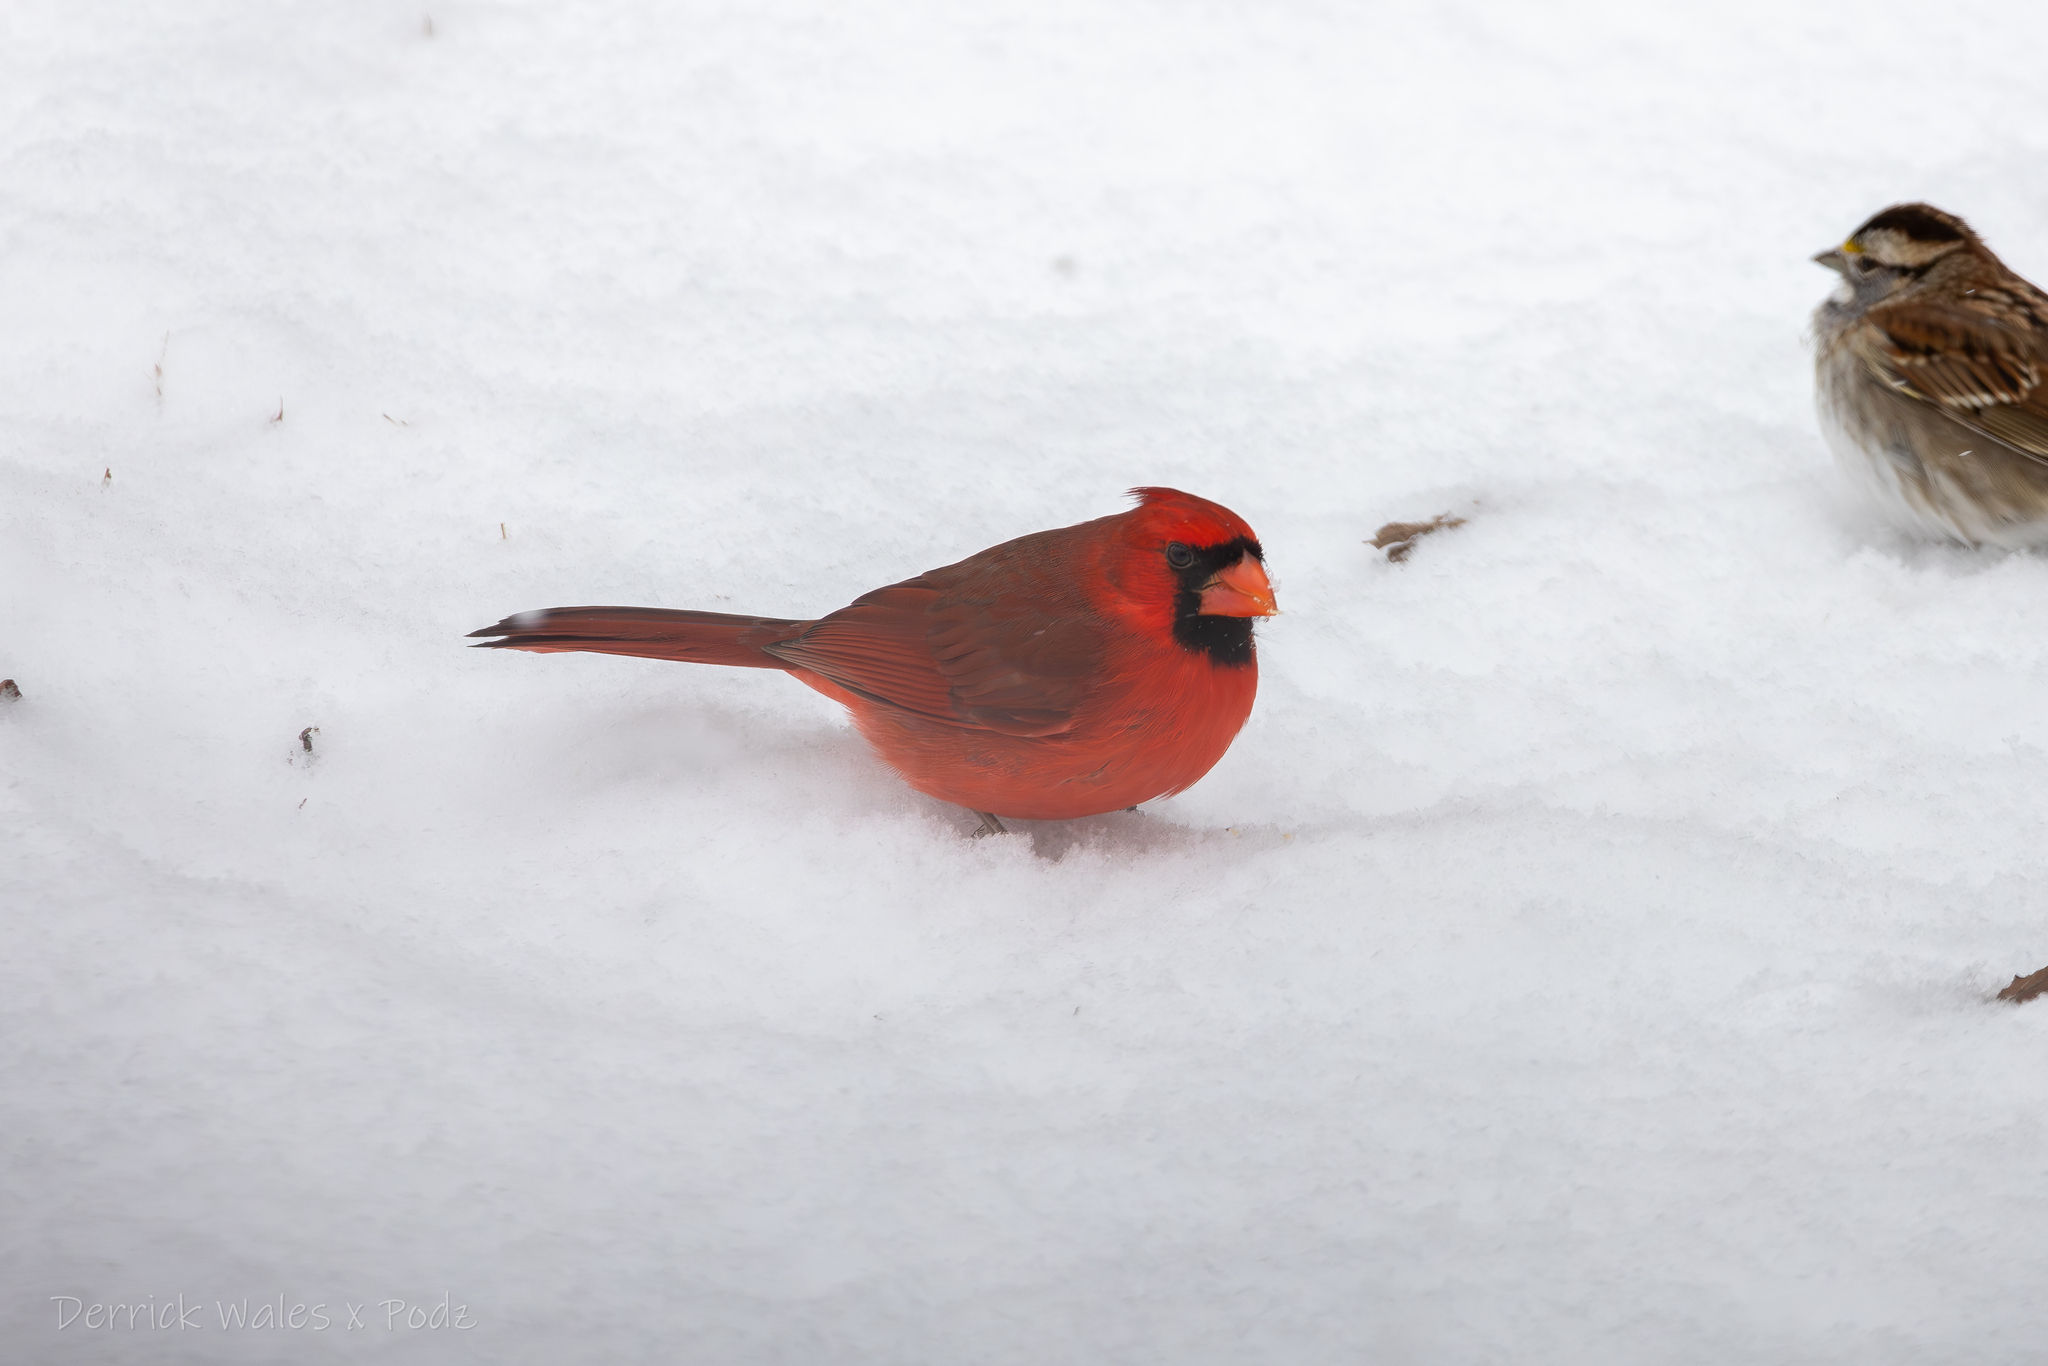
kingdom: Animalia
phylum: Chordata
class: Aves
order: Passeriformes
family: Cardinalidae
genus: Cardinalis
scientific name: Cardinalis cardinalis
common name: Northern cardinal
